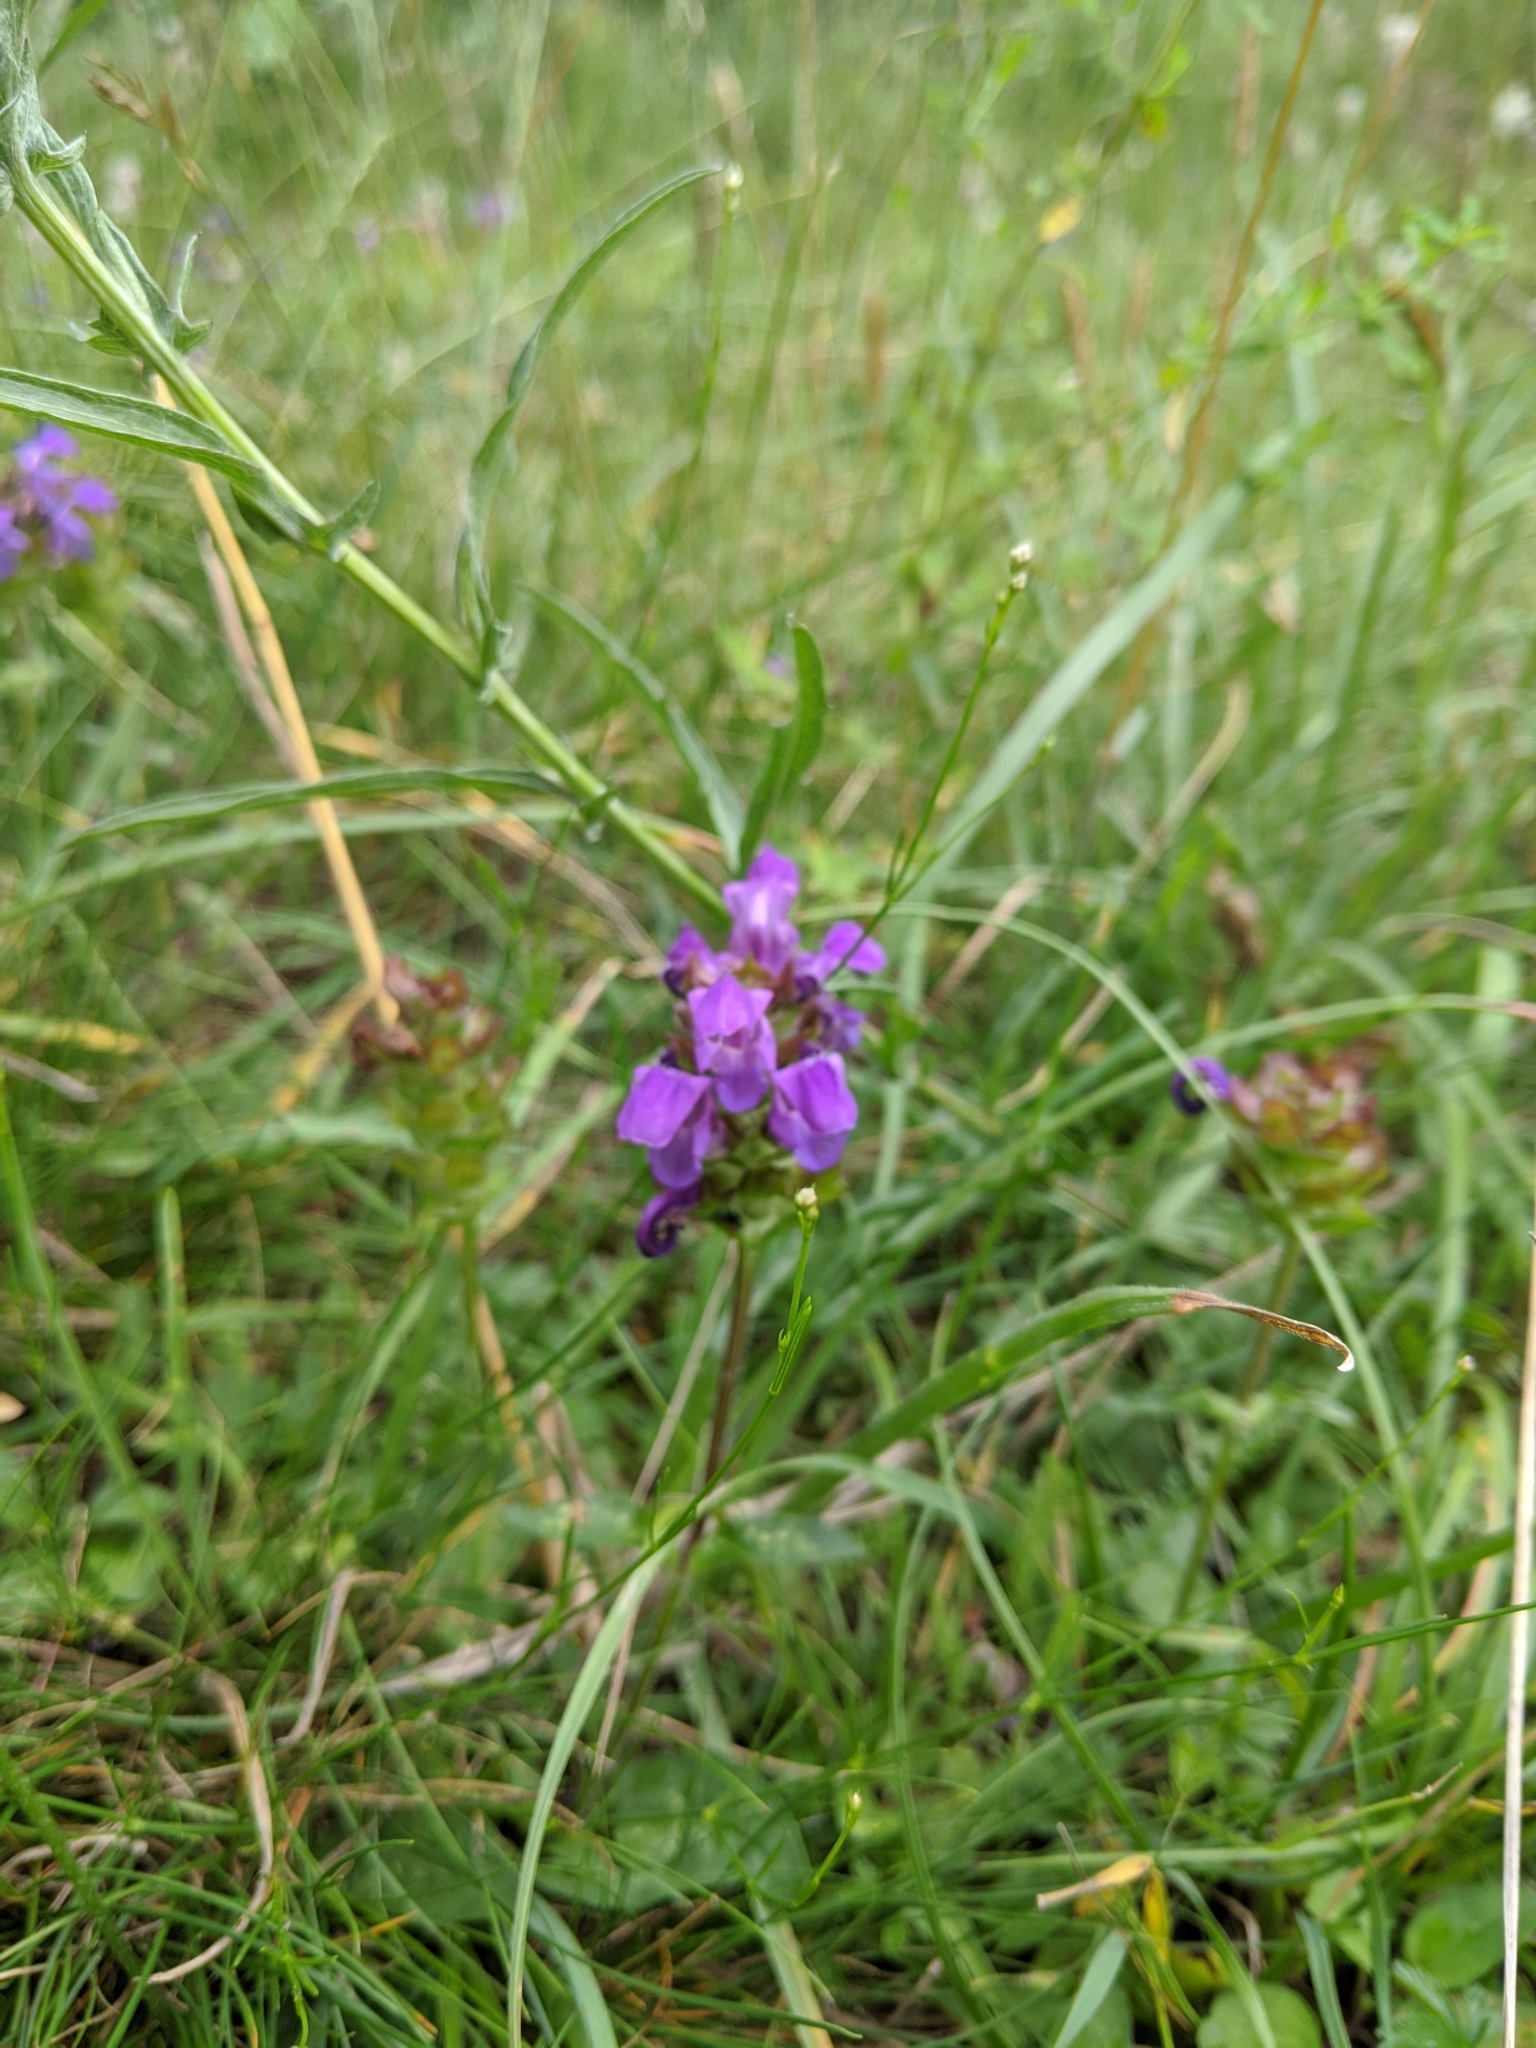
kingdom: Plantae
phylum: Tracheophyta
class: Magnoliopsida
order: Lamiales
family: Lamiaceae
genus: Prunella
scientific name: Prunella grandiflora
